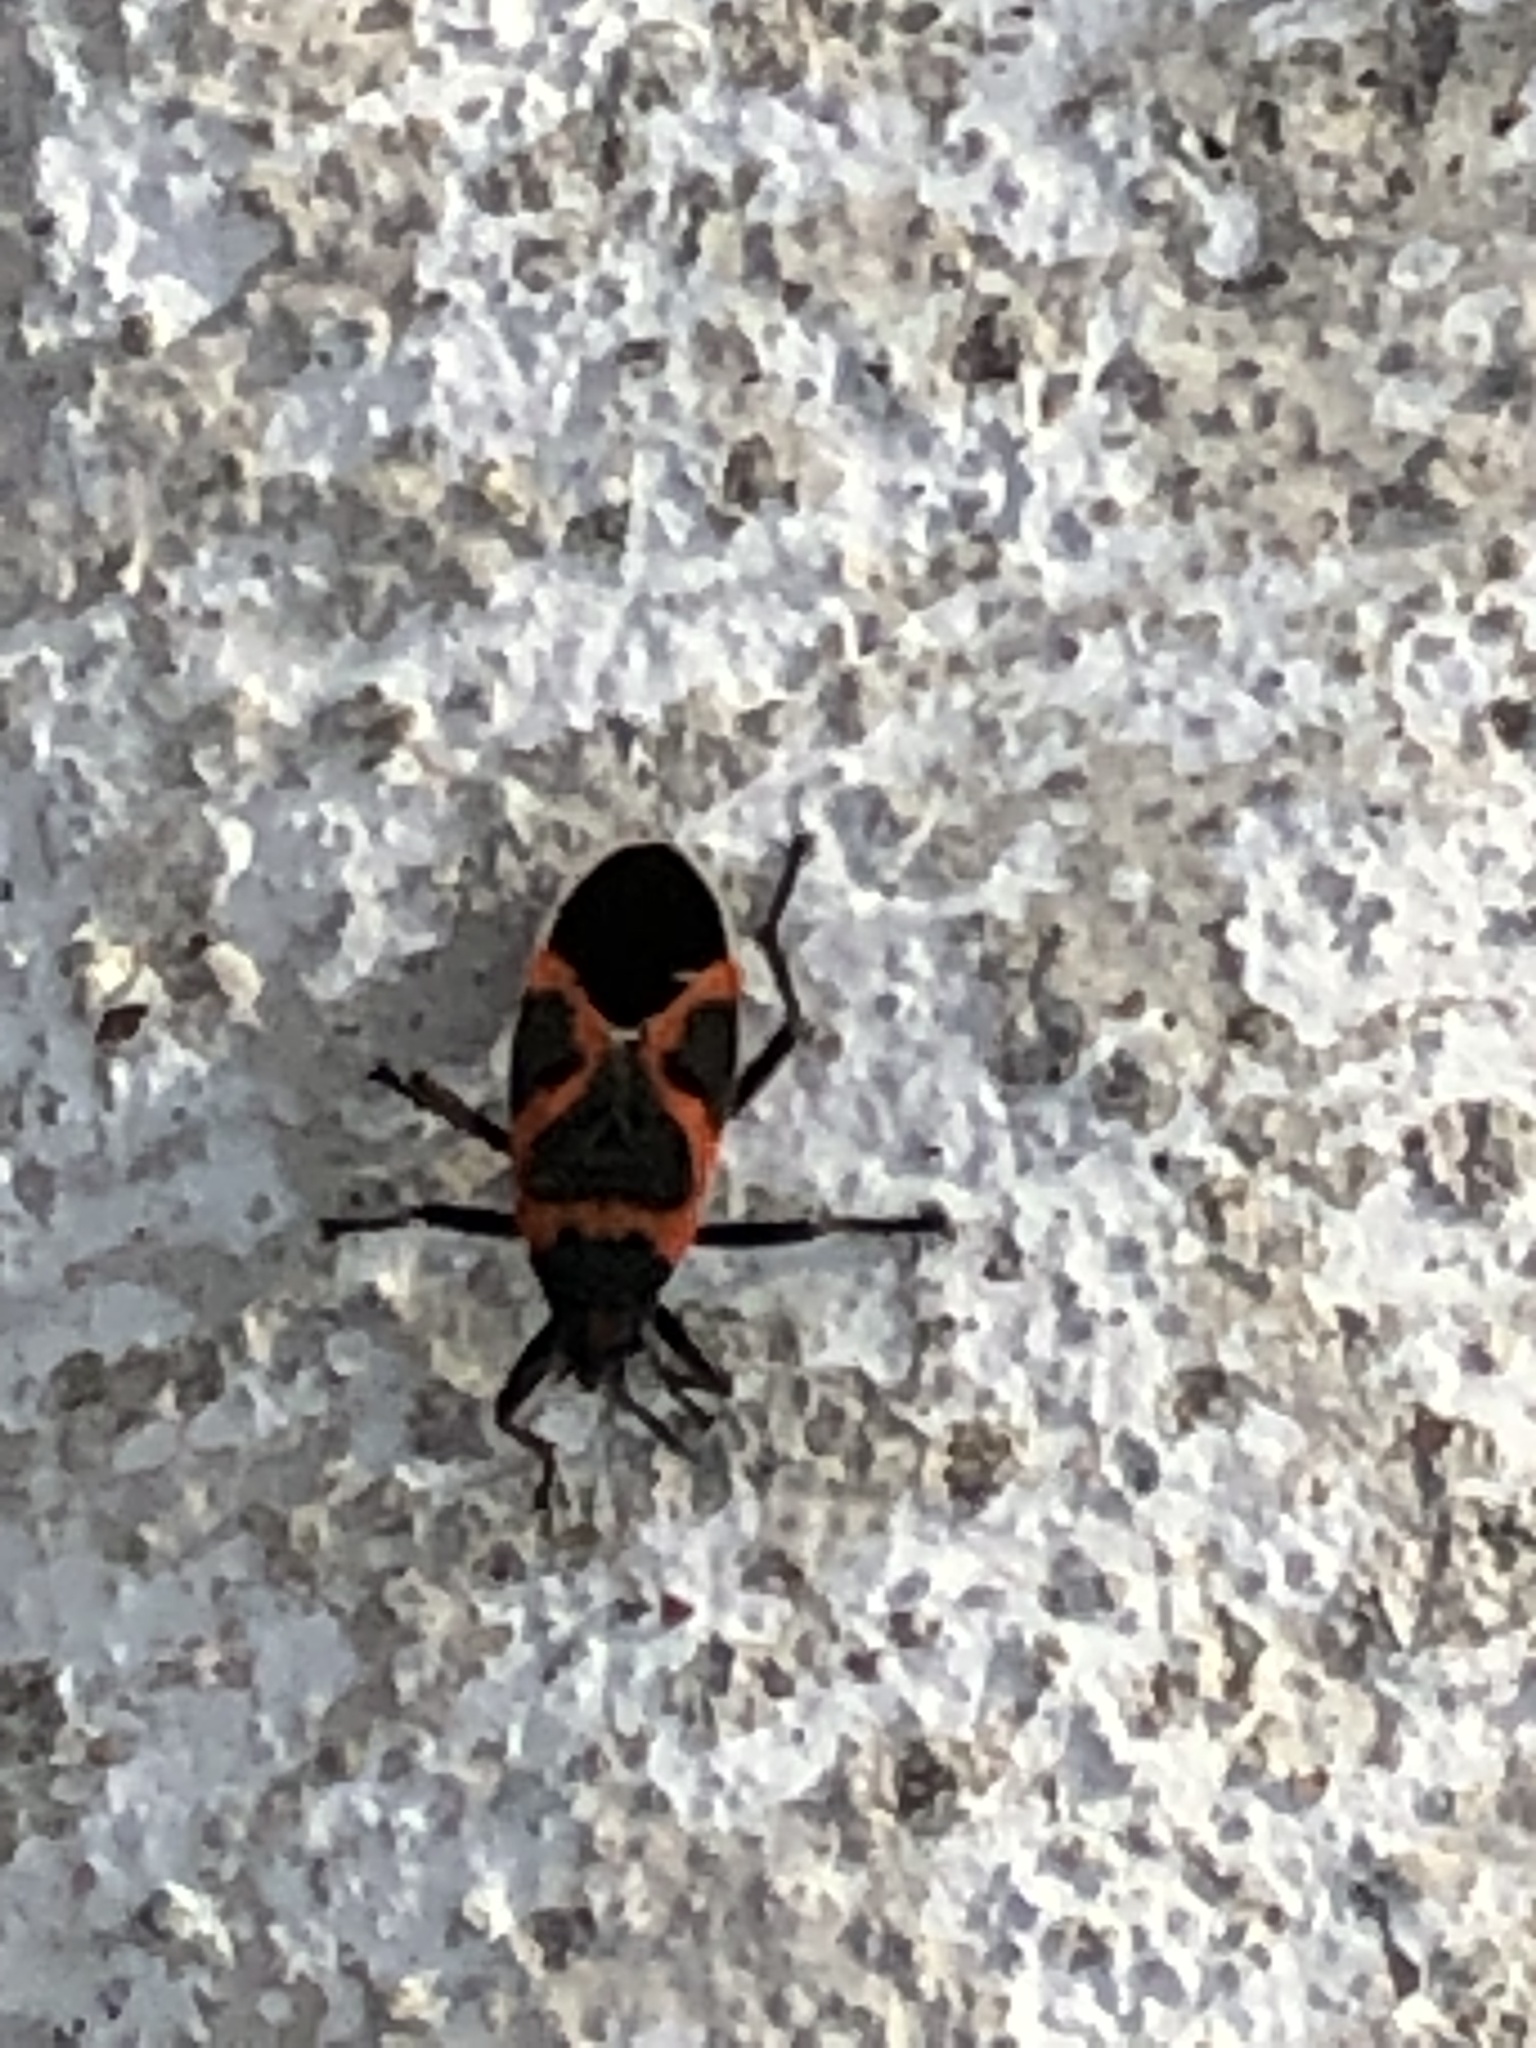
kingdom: Animalia
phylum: Arthropoda
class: Insecta
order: Hemiptera
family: Lygaeidae
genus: Lygaeus
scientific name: Lygaeus kalmii
